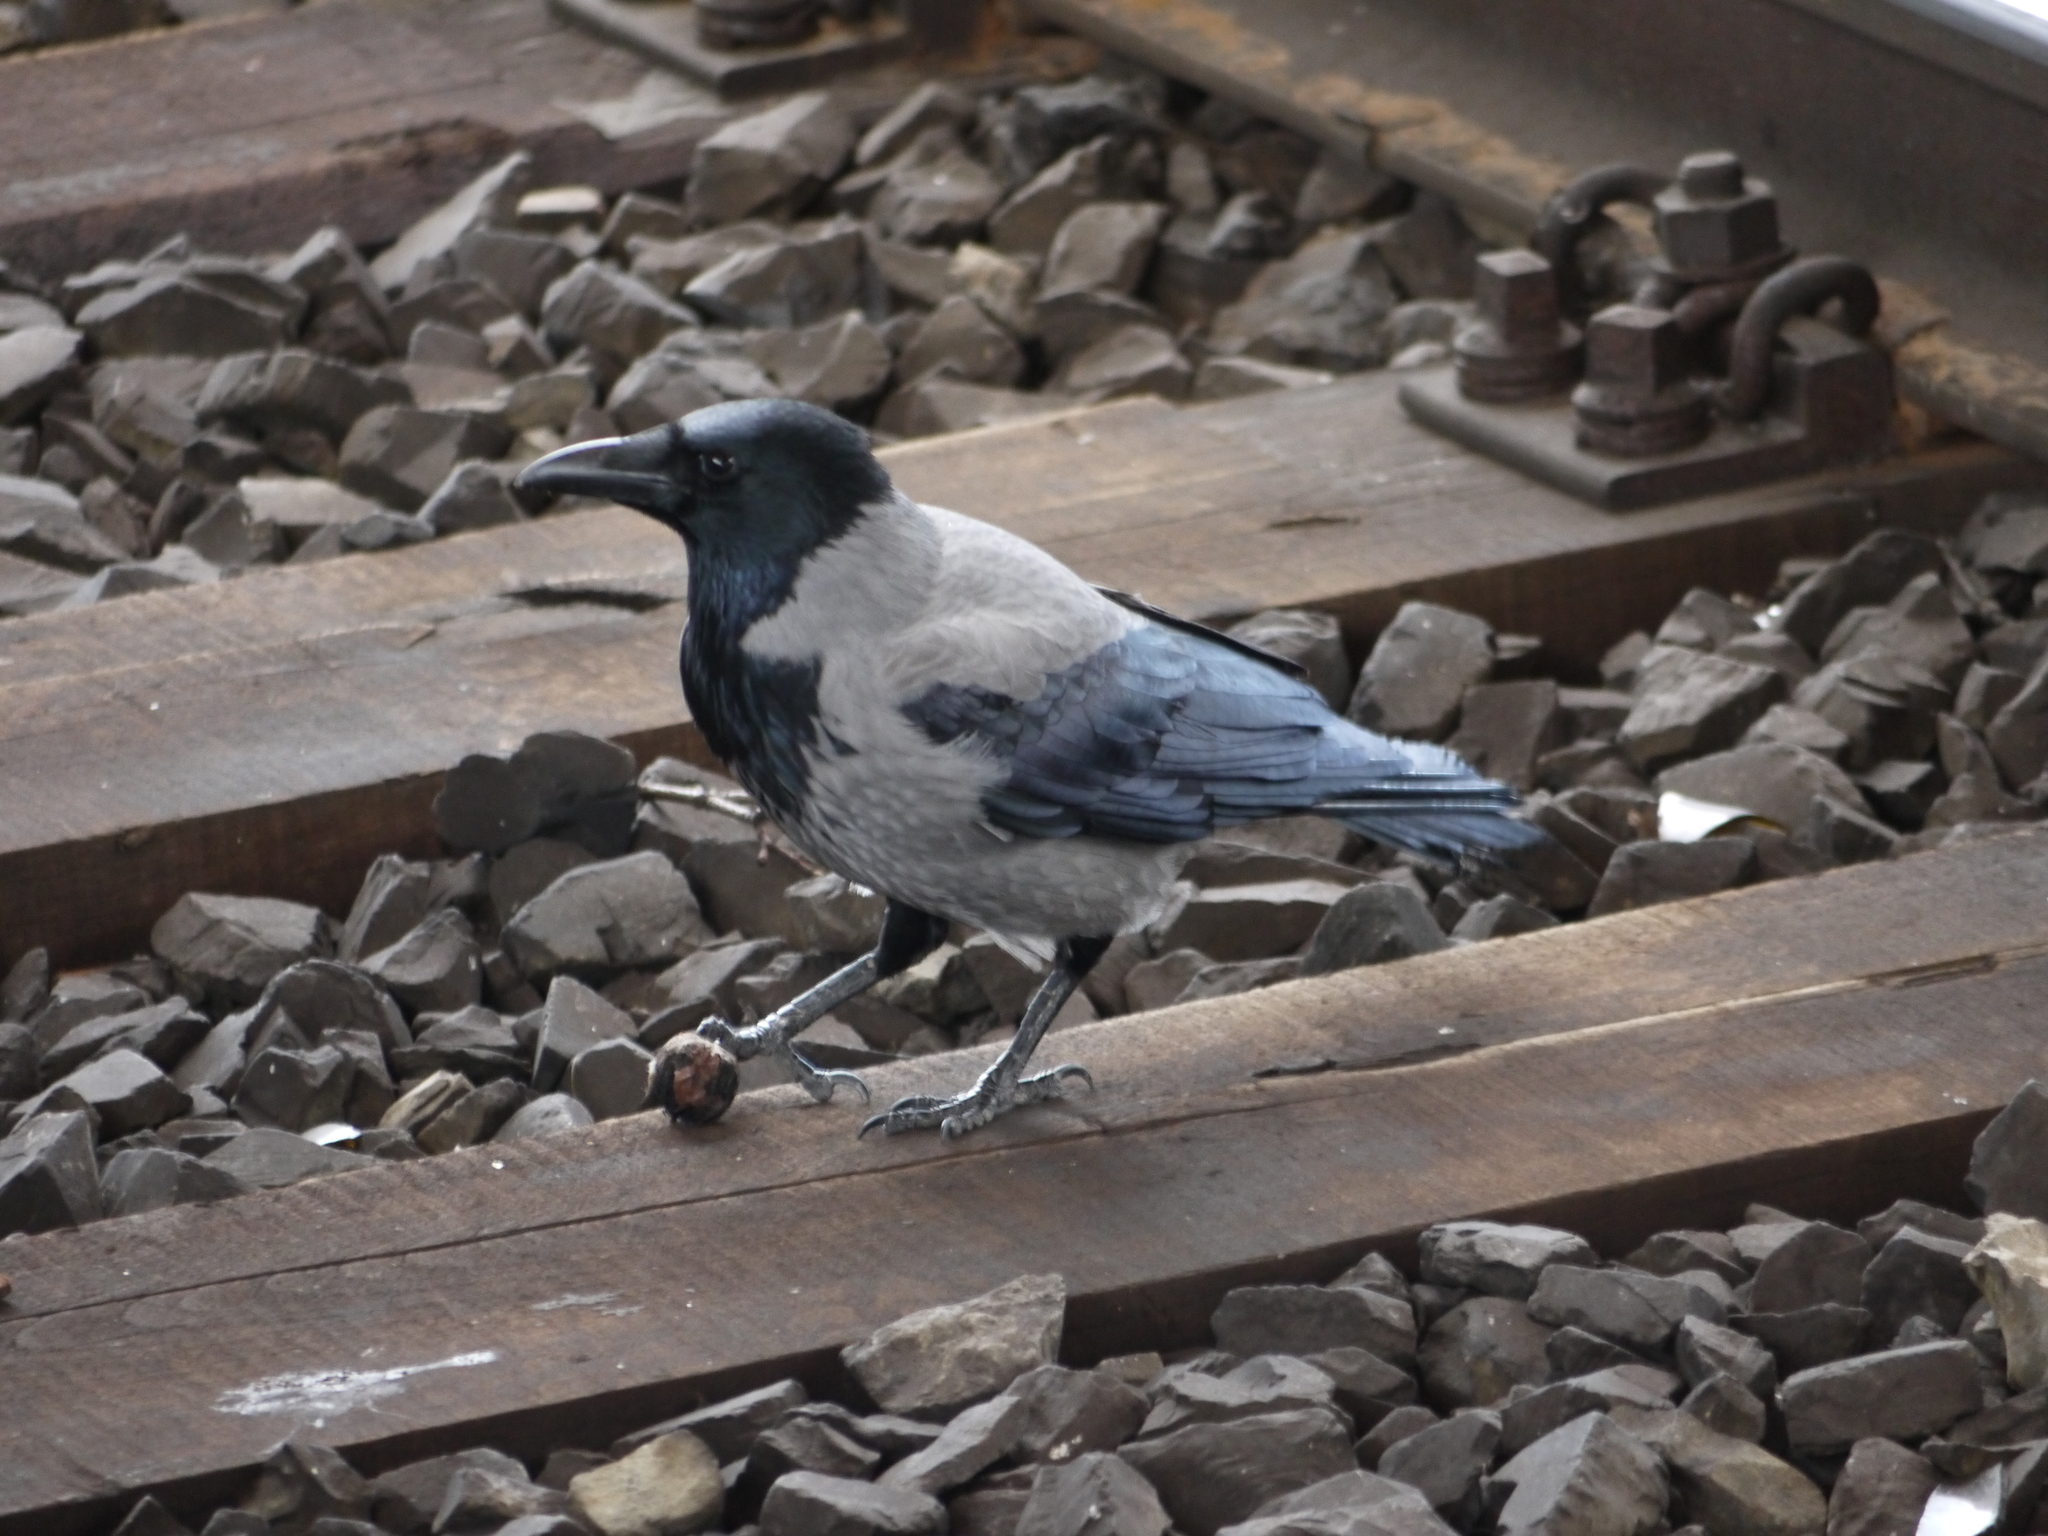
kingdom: Animalia
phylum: Chordata
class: Aves
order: Passeriformes
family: Corvidae
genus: Corvus
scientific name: Corvus cornix
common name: Hooded crow
